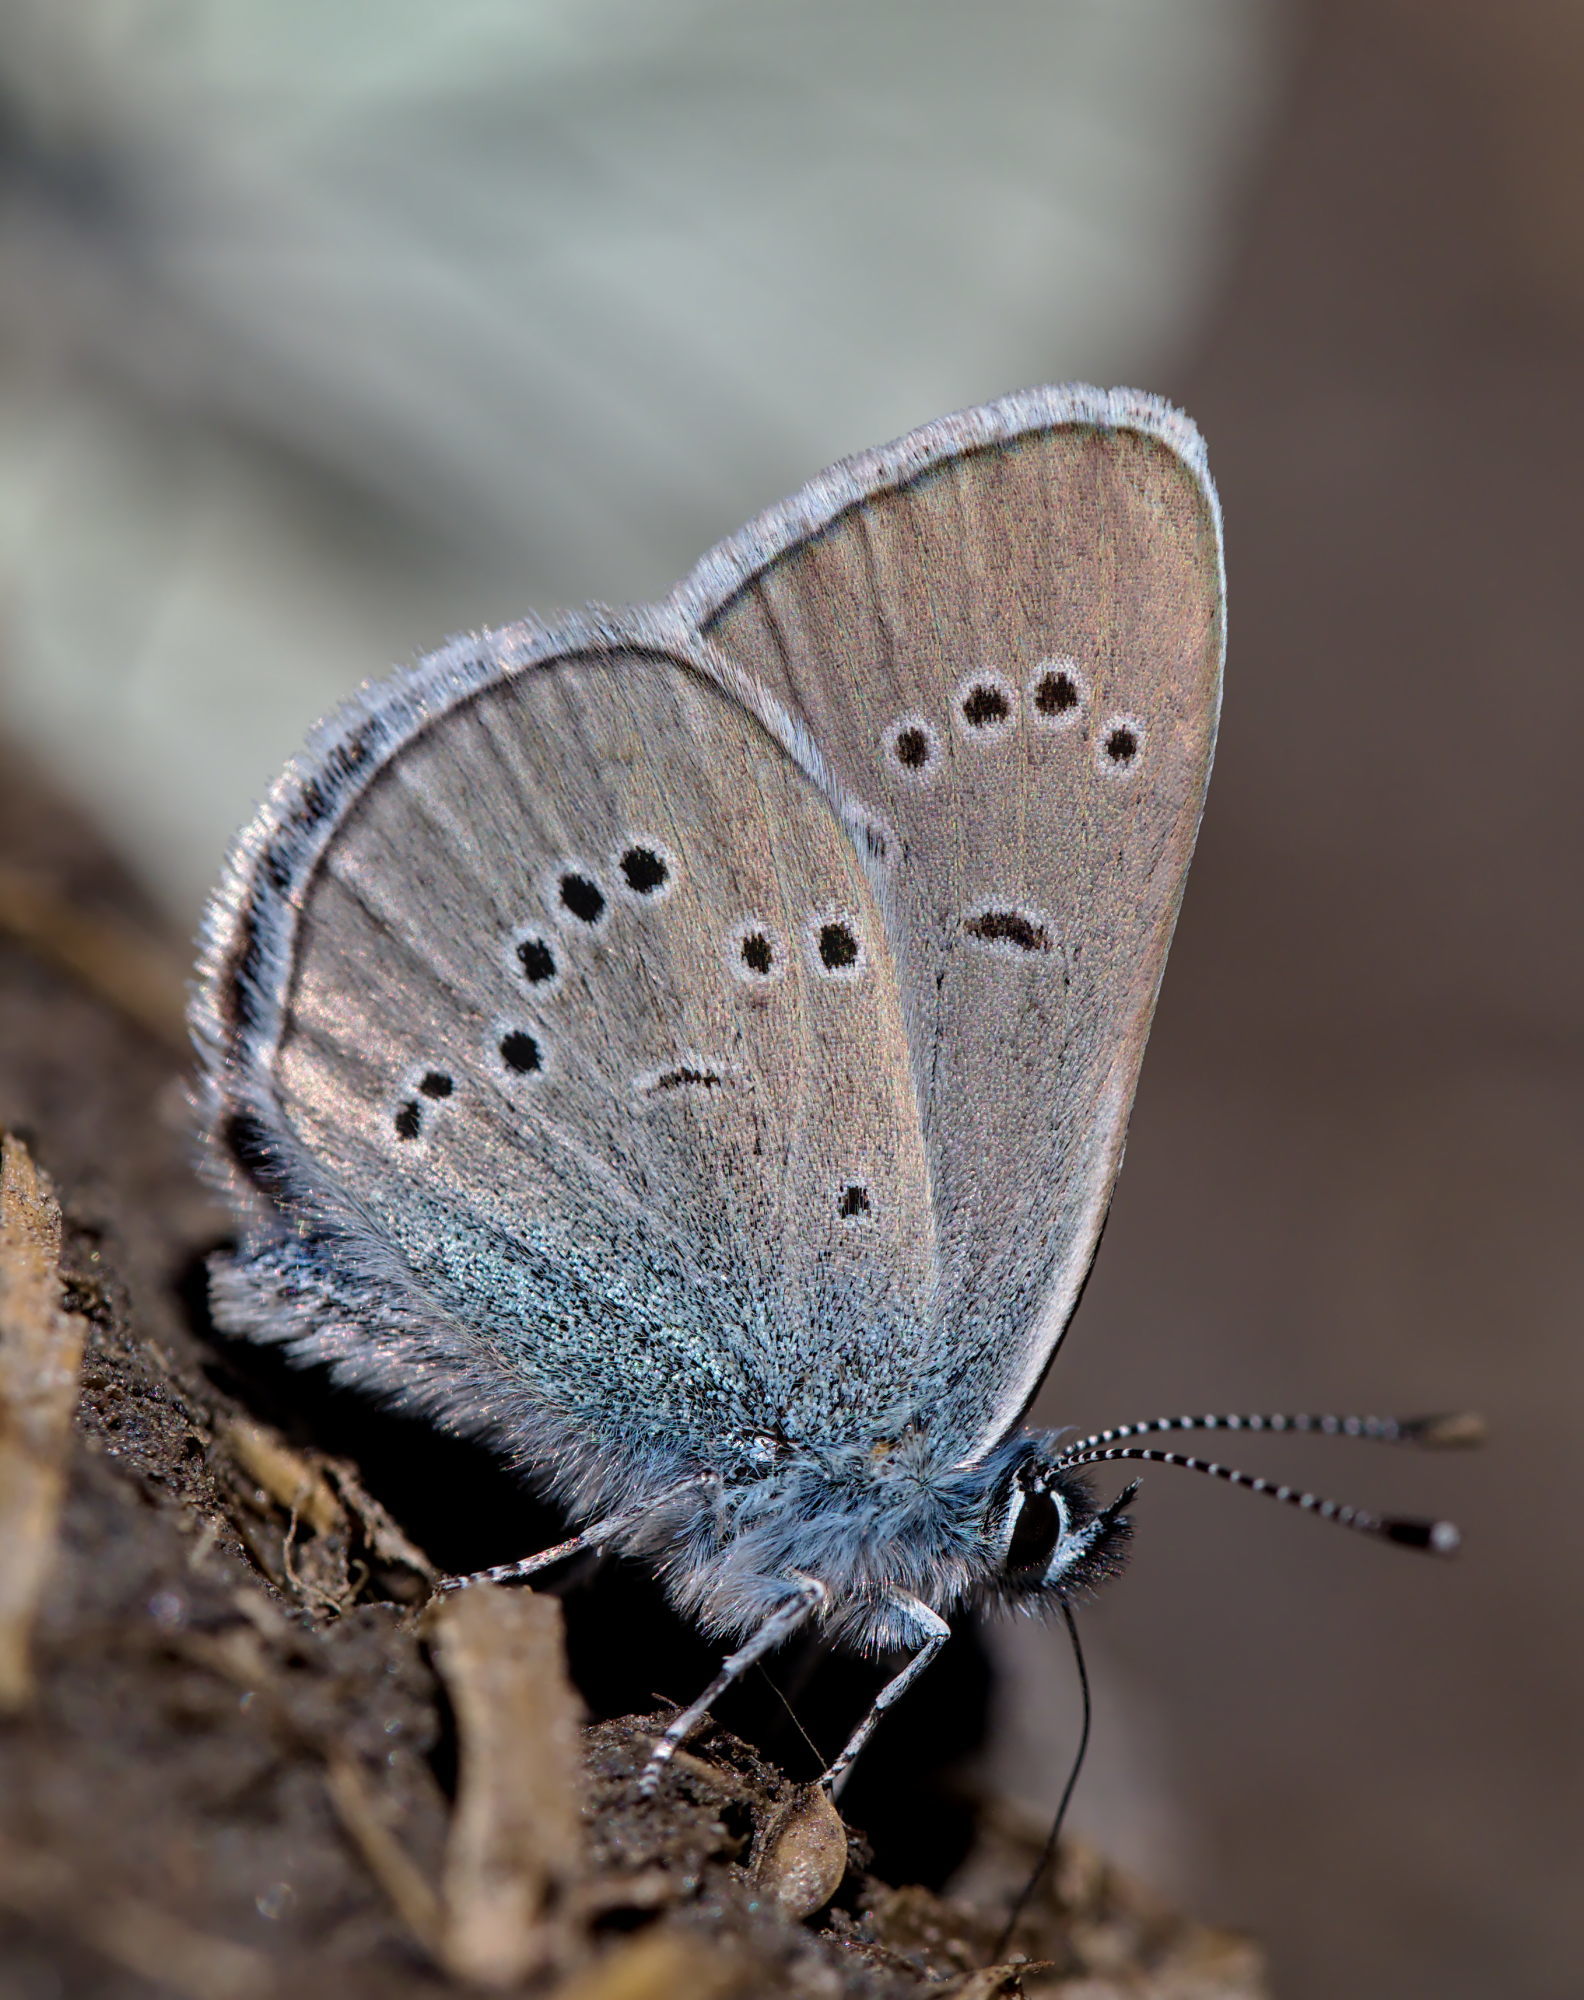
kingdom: Animalia
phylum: Arthropoda
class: Insecta
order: Lepidoptera
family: Lycaenidae
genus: Cyaniris
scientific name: Cyaniris semiargus
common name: Mazarine blue
